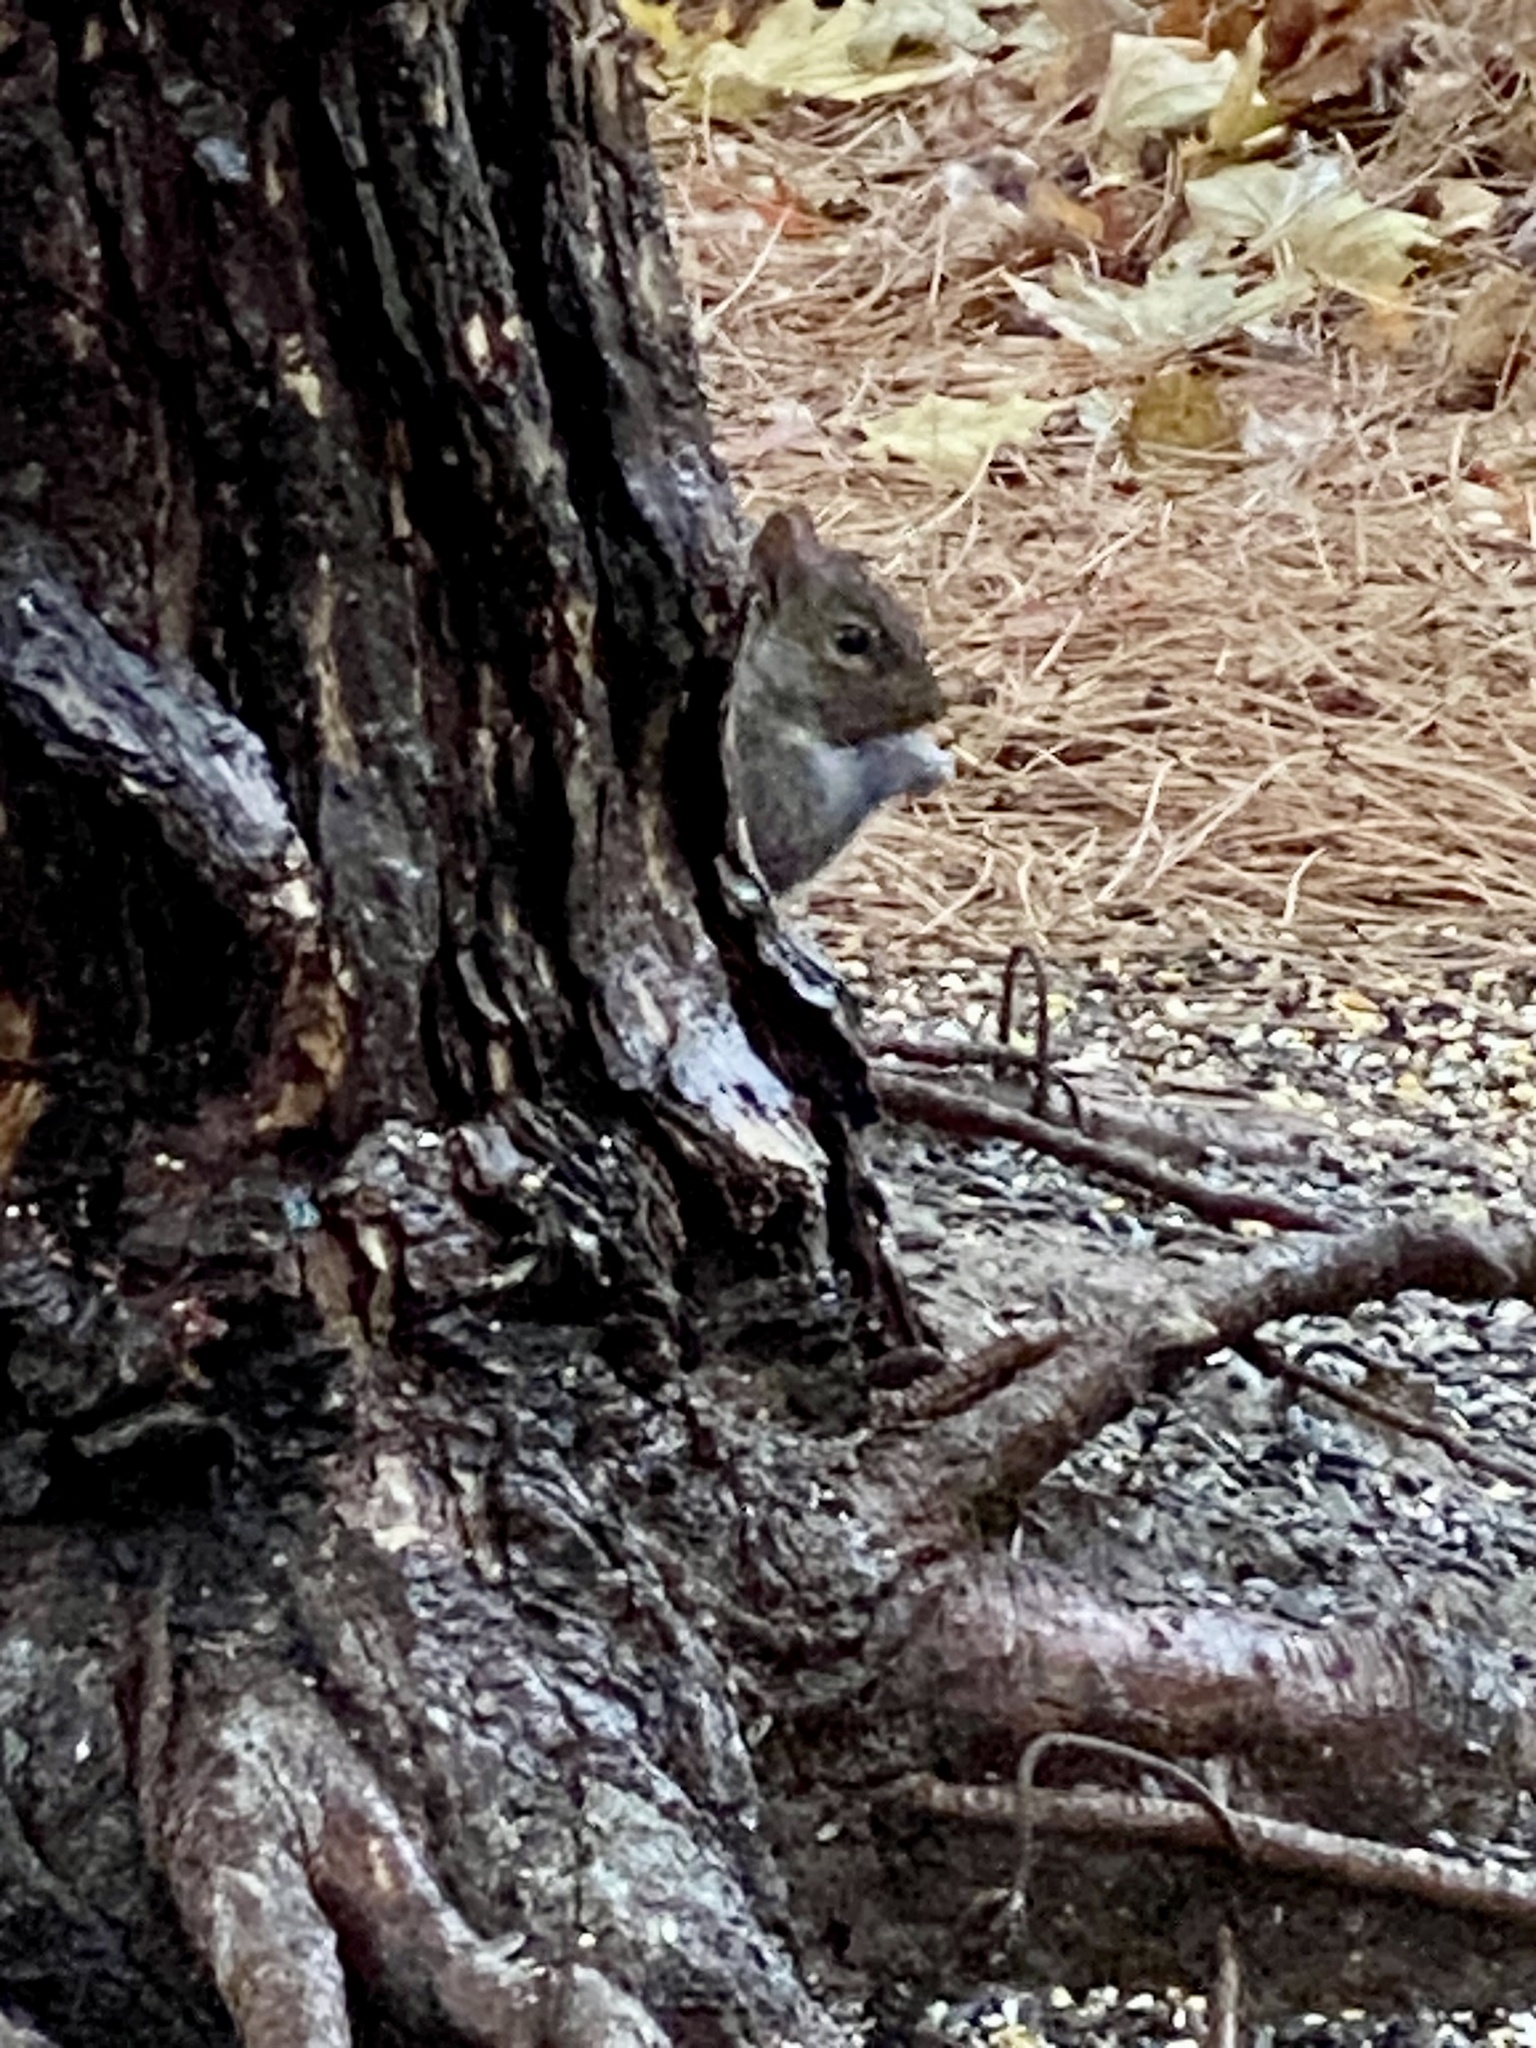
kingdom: Animalia
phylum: Chordata
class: Mammalia
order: Rodentia
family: Sciuridae
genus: Sciurus
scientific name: Sciurus carolinensis
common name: Eastern gray squirrel
